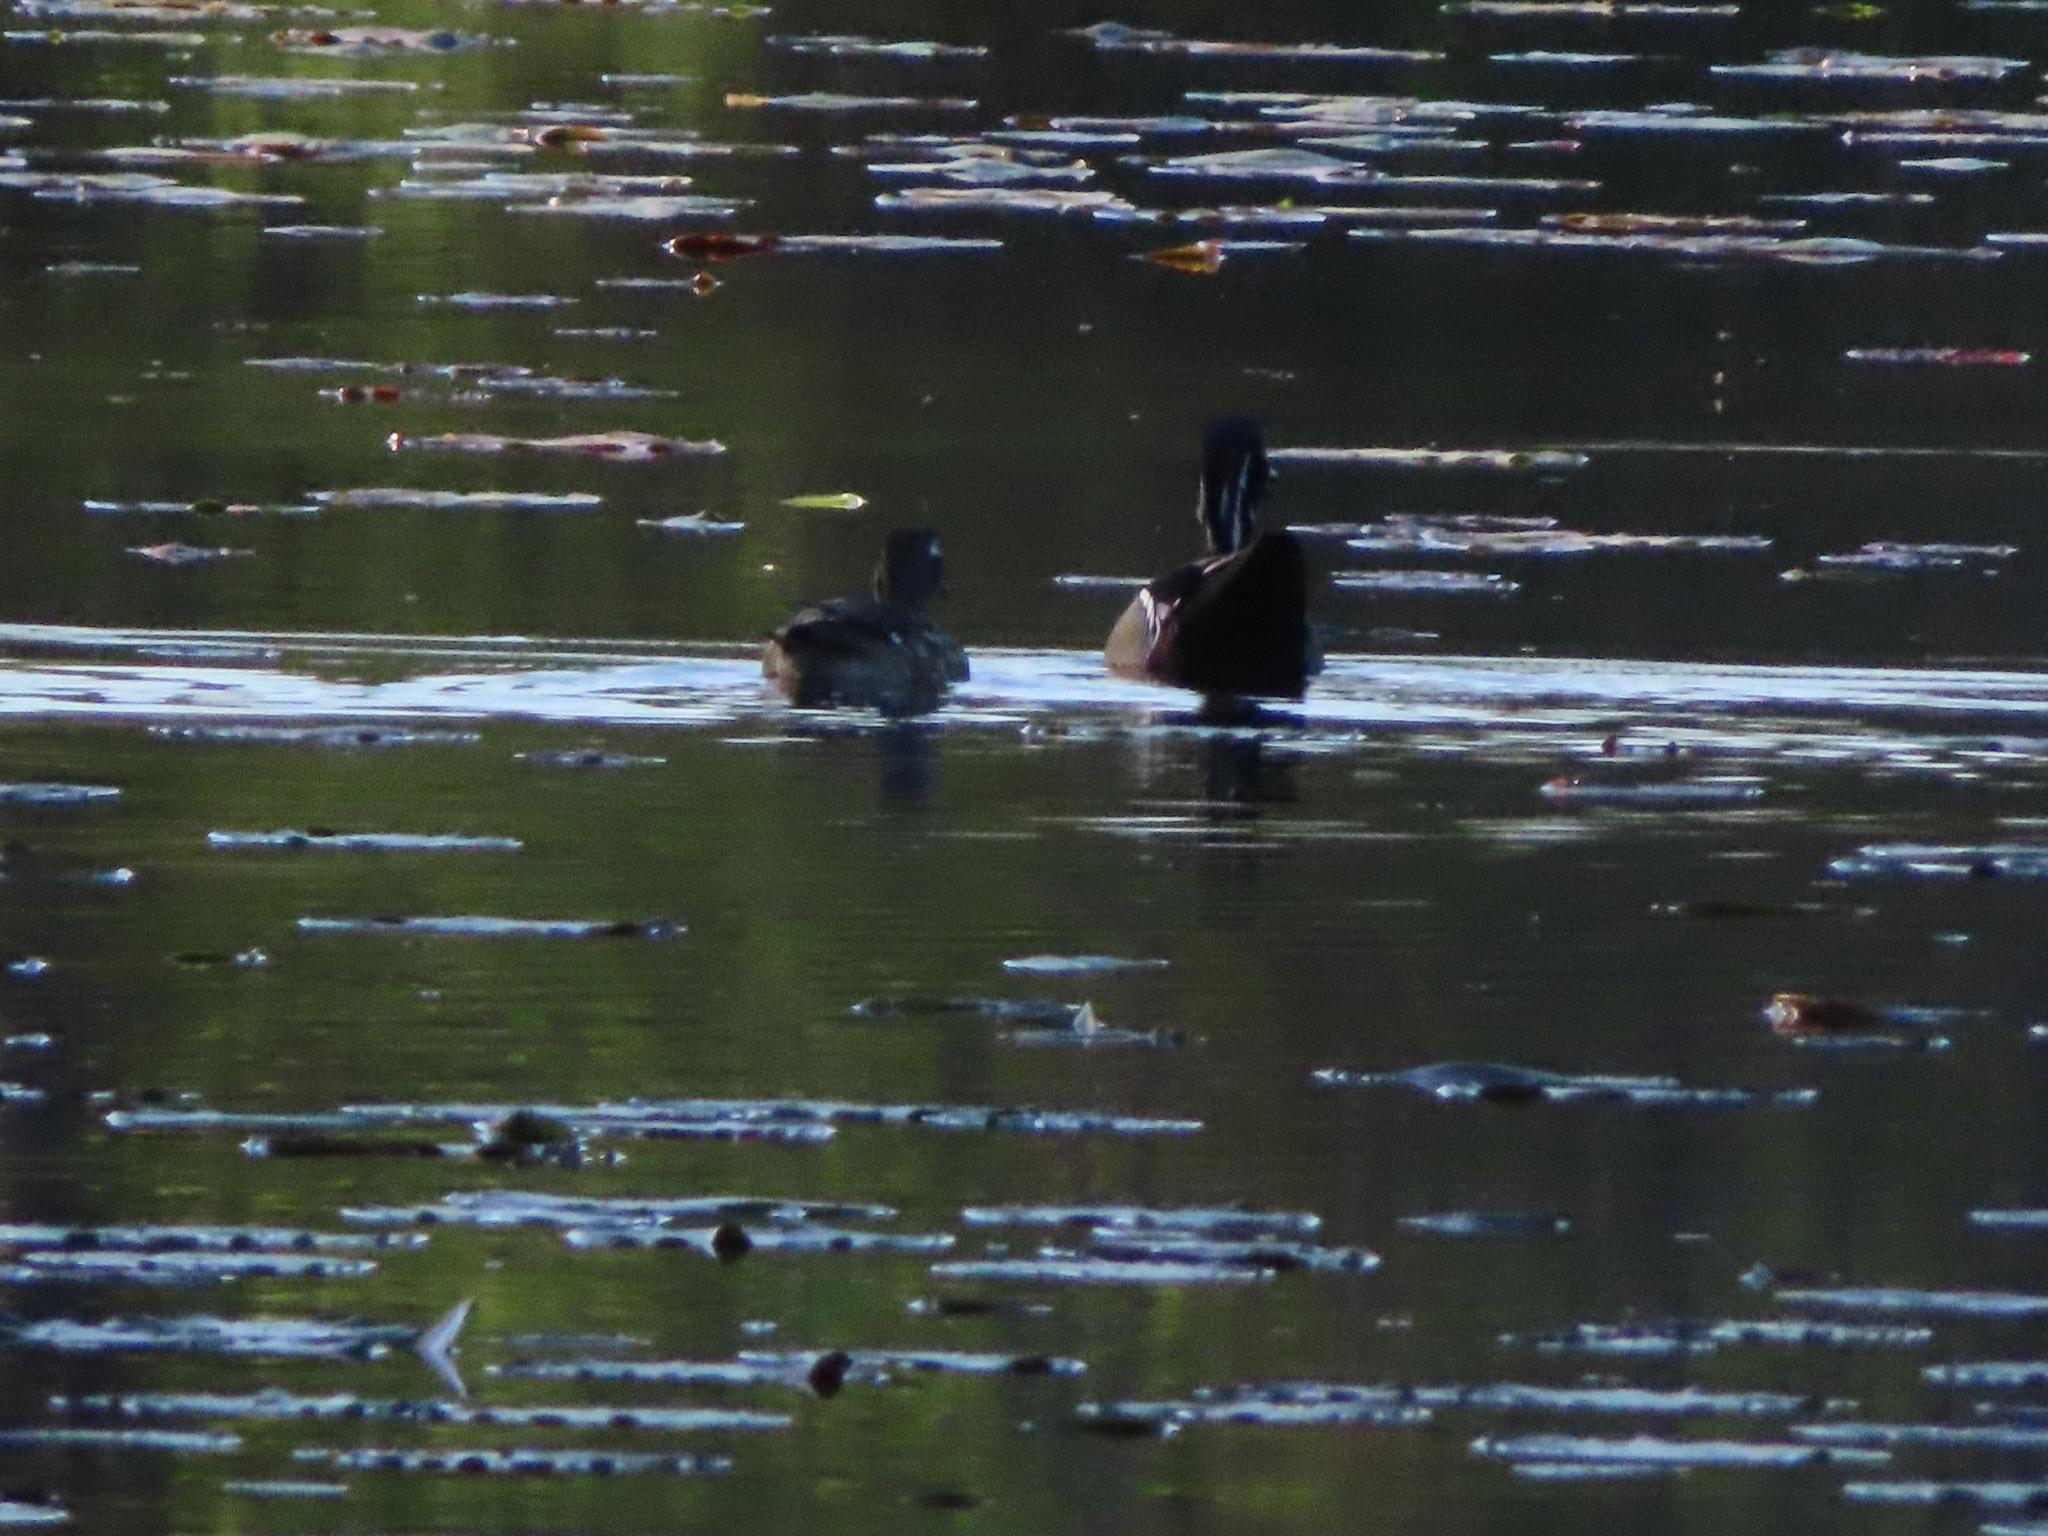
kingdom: Animalia
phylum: Chordata
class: Aves
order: Anseriformes
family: Anatidae
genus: Aix
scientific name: Aix sponsa
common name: Wood duck
